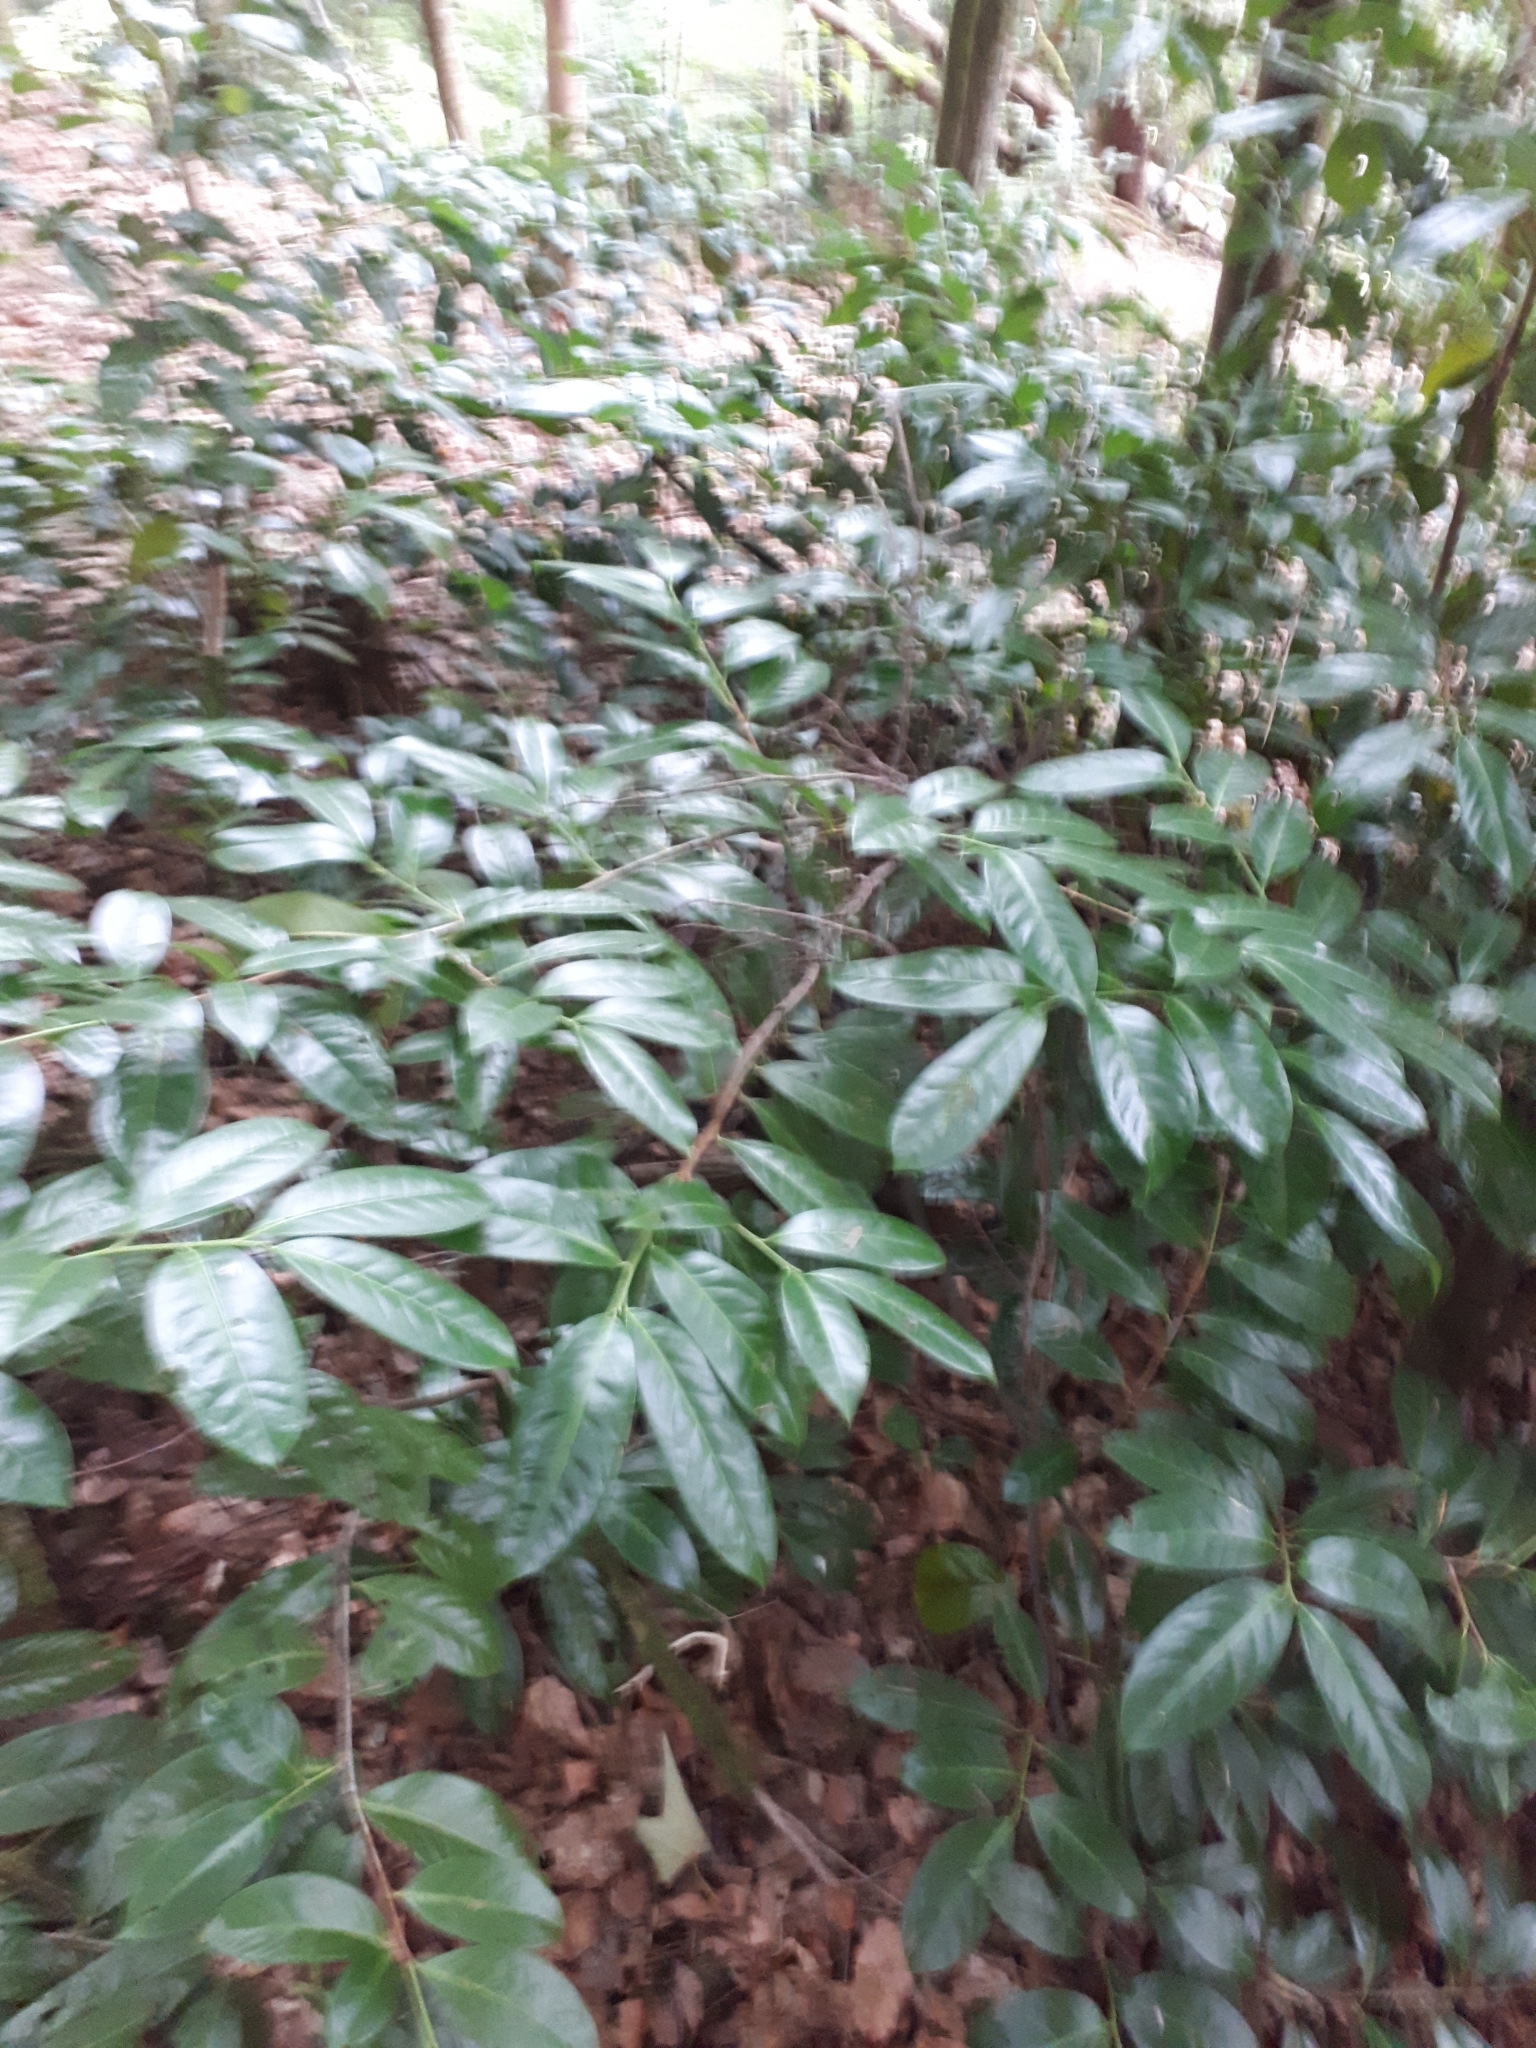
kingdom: Plantae
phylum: Tracheophyta
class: Magnoliopsida
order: Rosales
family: Rosaceae
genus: Prunus
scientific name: Prunus laurocerasus
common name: Cherry laurel
